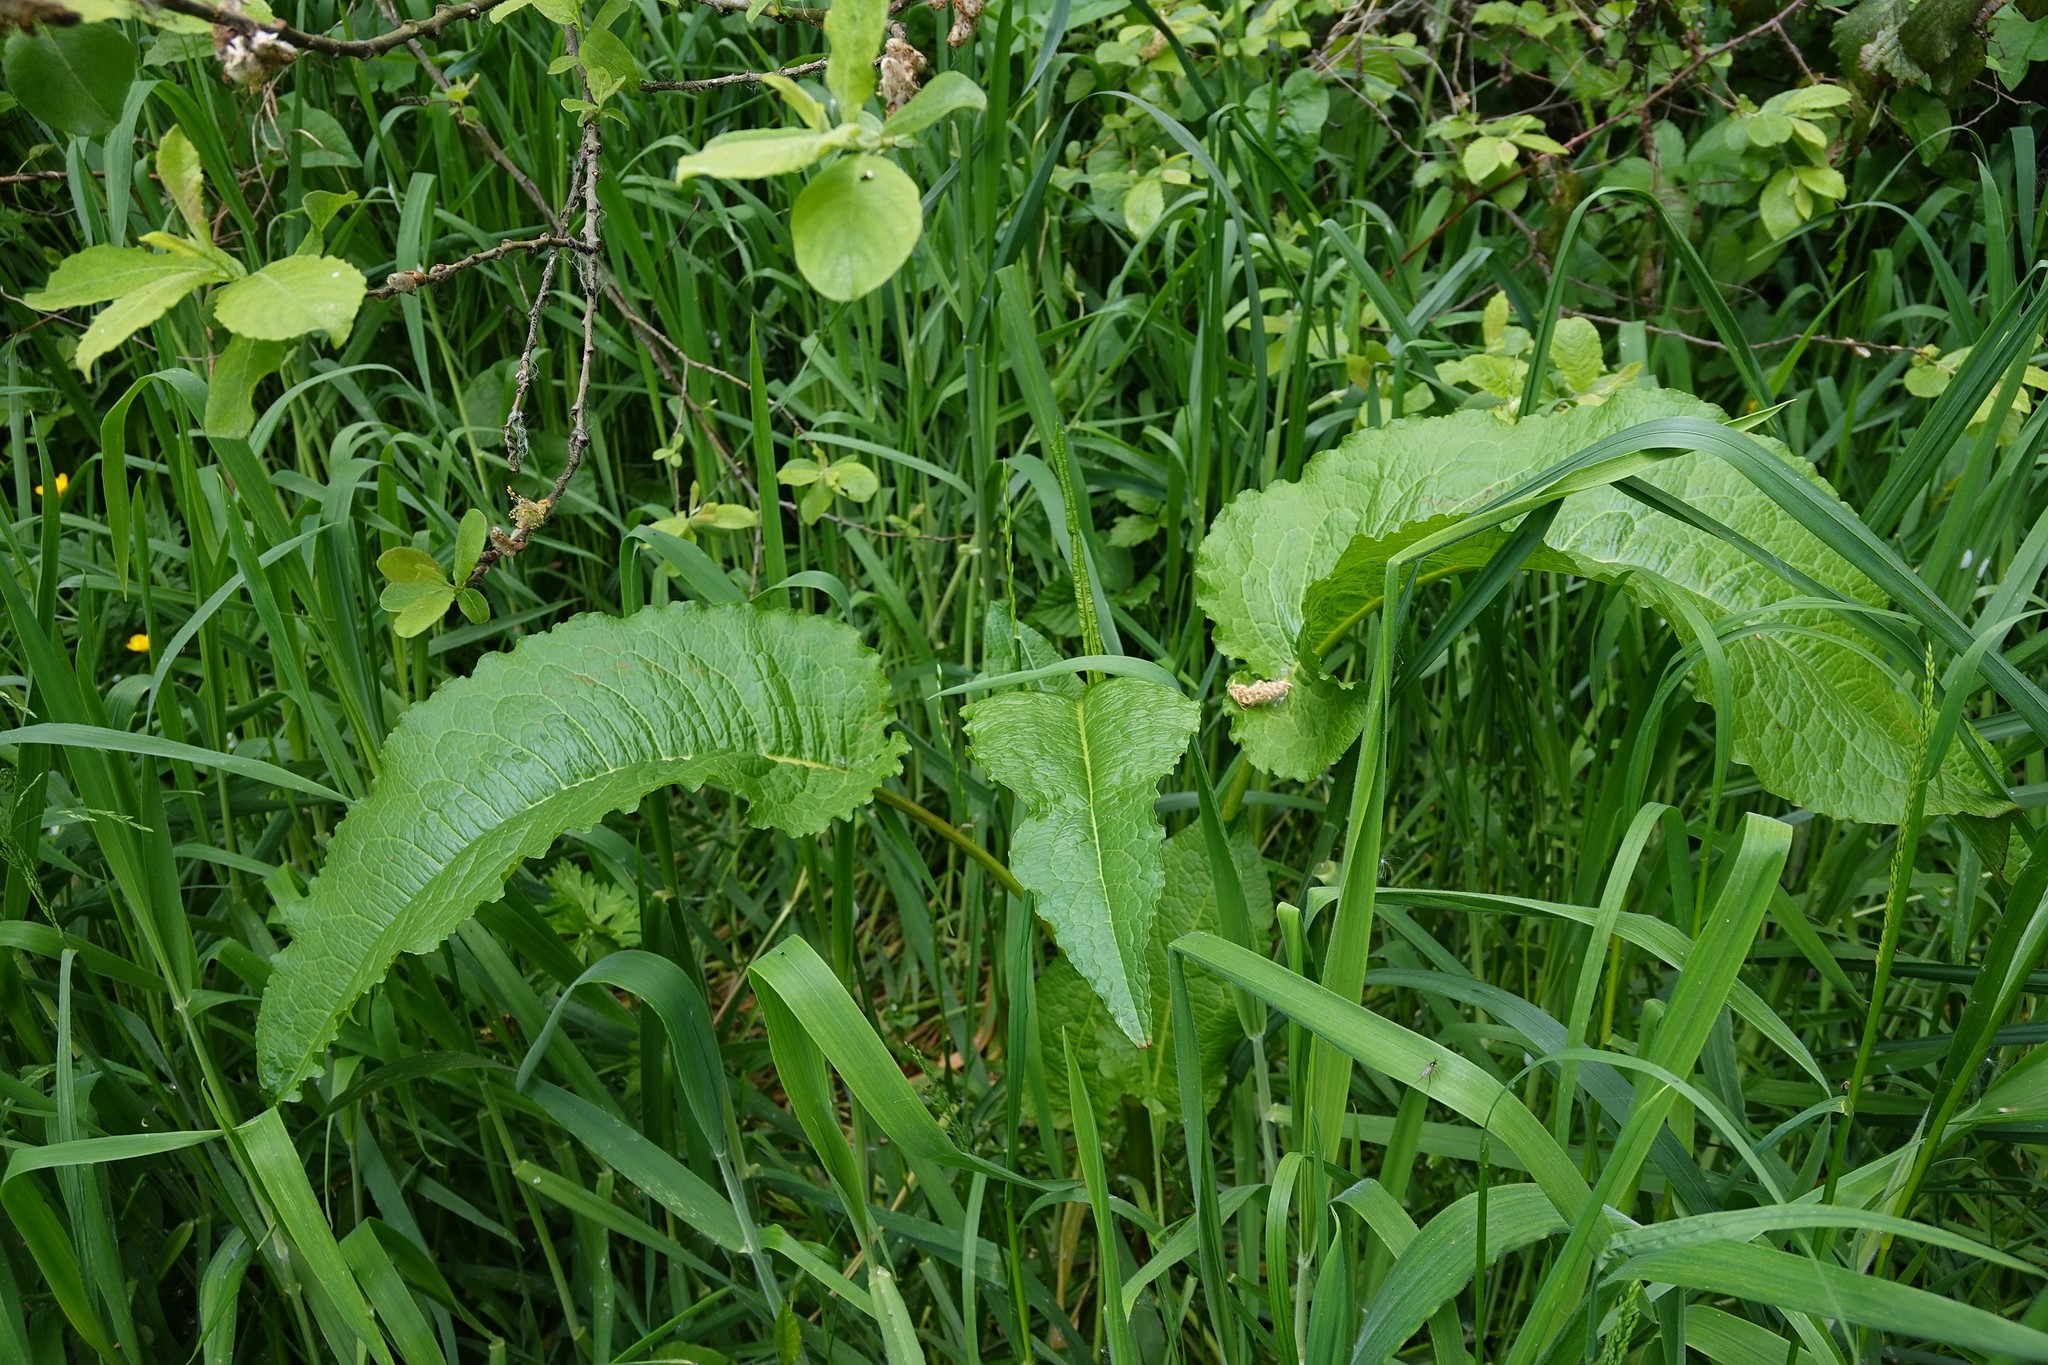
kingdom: Plantae
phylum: Tracheophyta
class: Magnoliopsida
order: Caryophyllales
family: Polygonaceae
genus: Rumex
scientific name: Rumex obtusifolius
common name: Bitter dock
